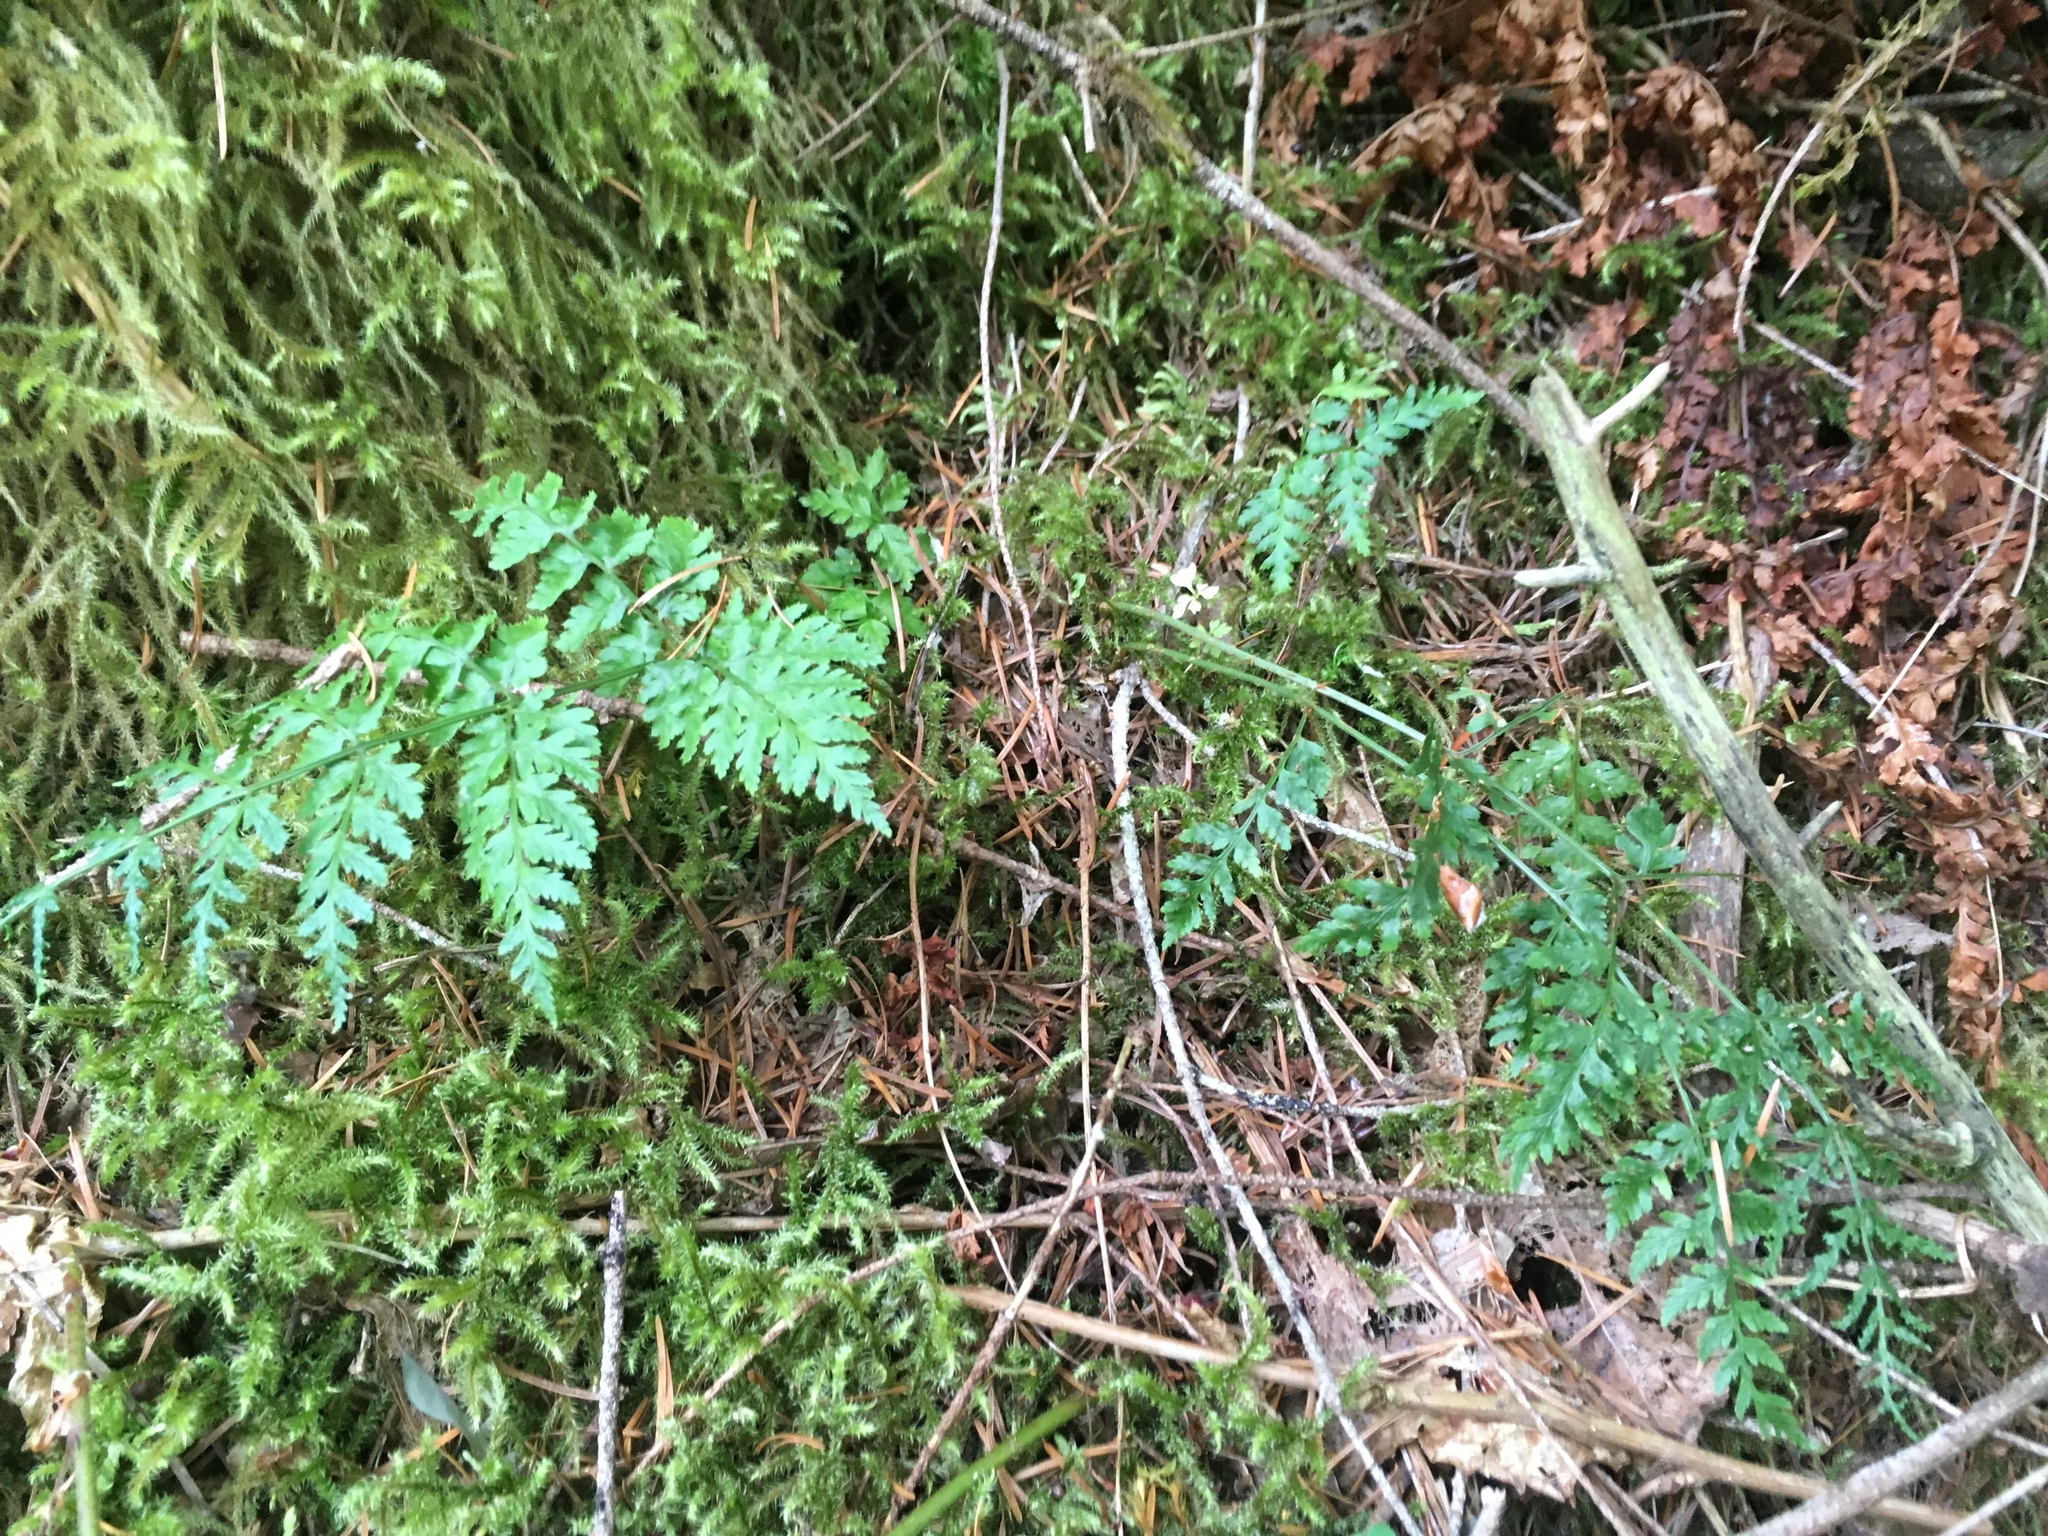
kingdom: Plantae
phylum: Tracheophyta
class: Polypodiopsida
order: Polypodiales
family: Dryopteridaceae
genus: Dryopteris
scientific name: Dryopteris expansa
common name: Northern buckler fern
